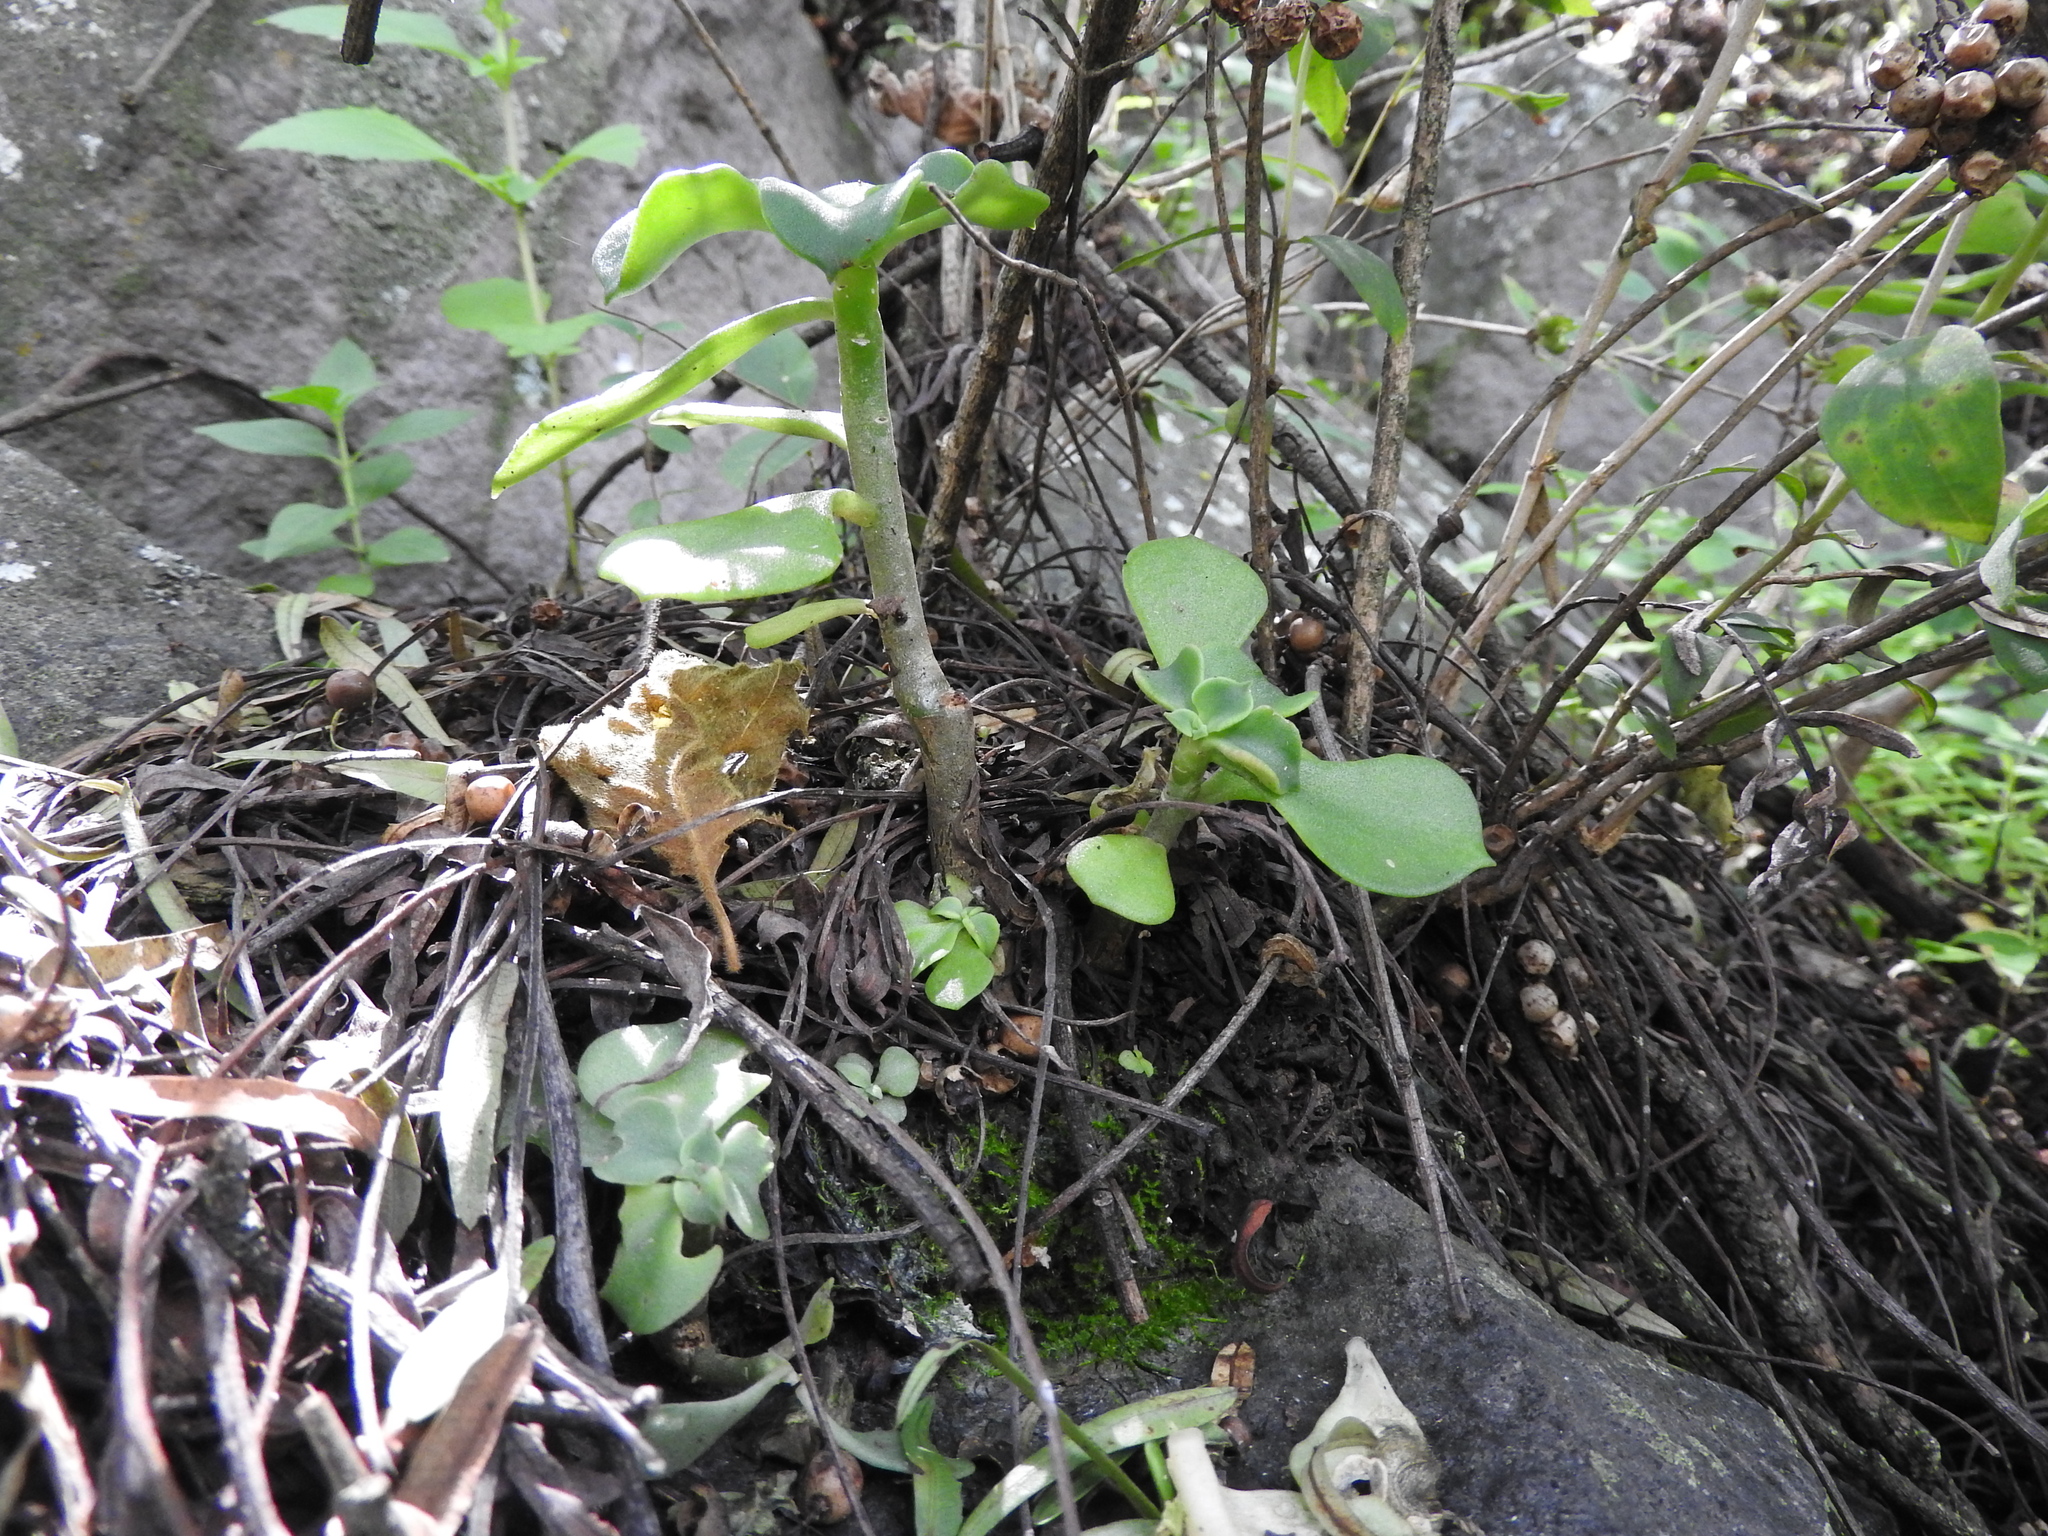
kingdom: Plantae
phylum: Tracheophyta
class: Magnoliopsida
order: Saxifragales
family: Crassulaceae
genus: Echeveria
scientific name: Echeveria chapalensis
